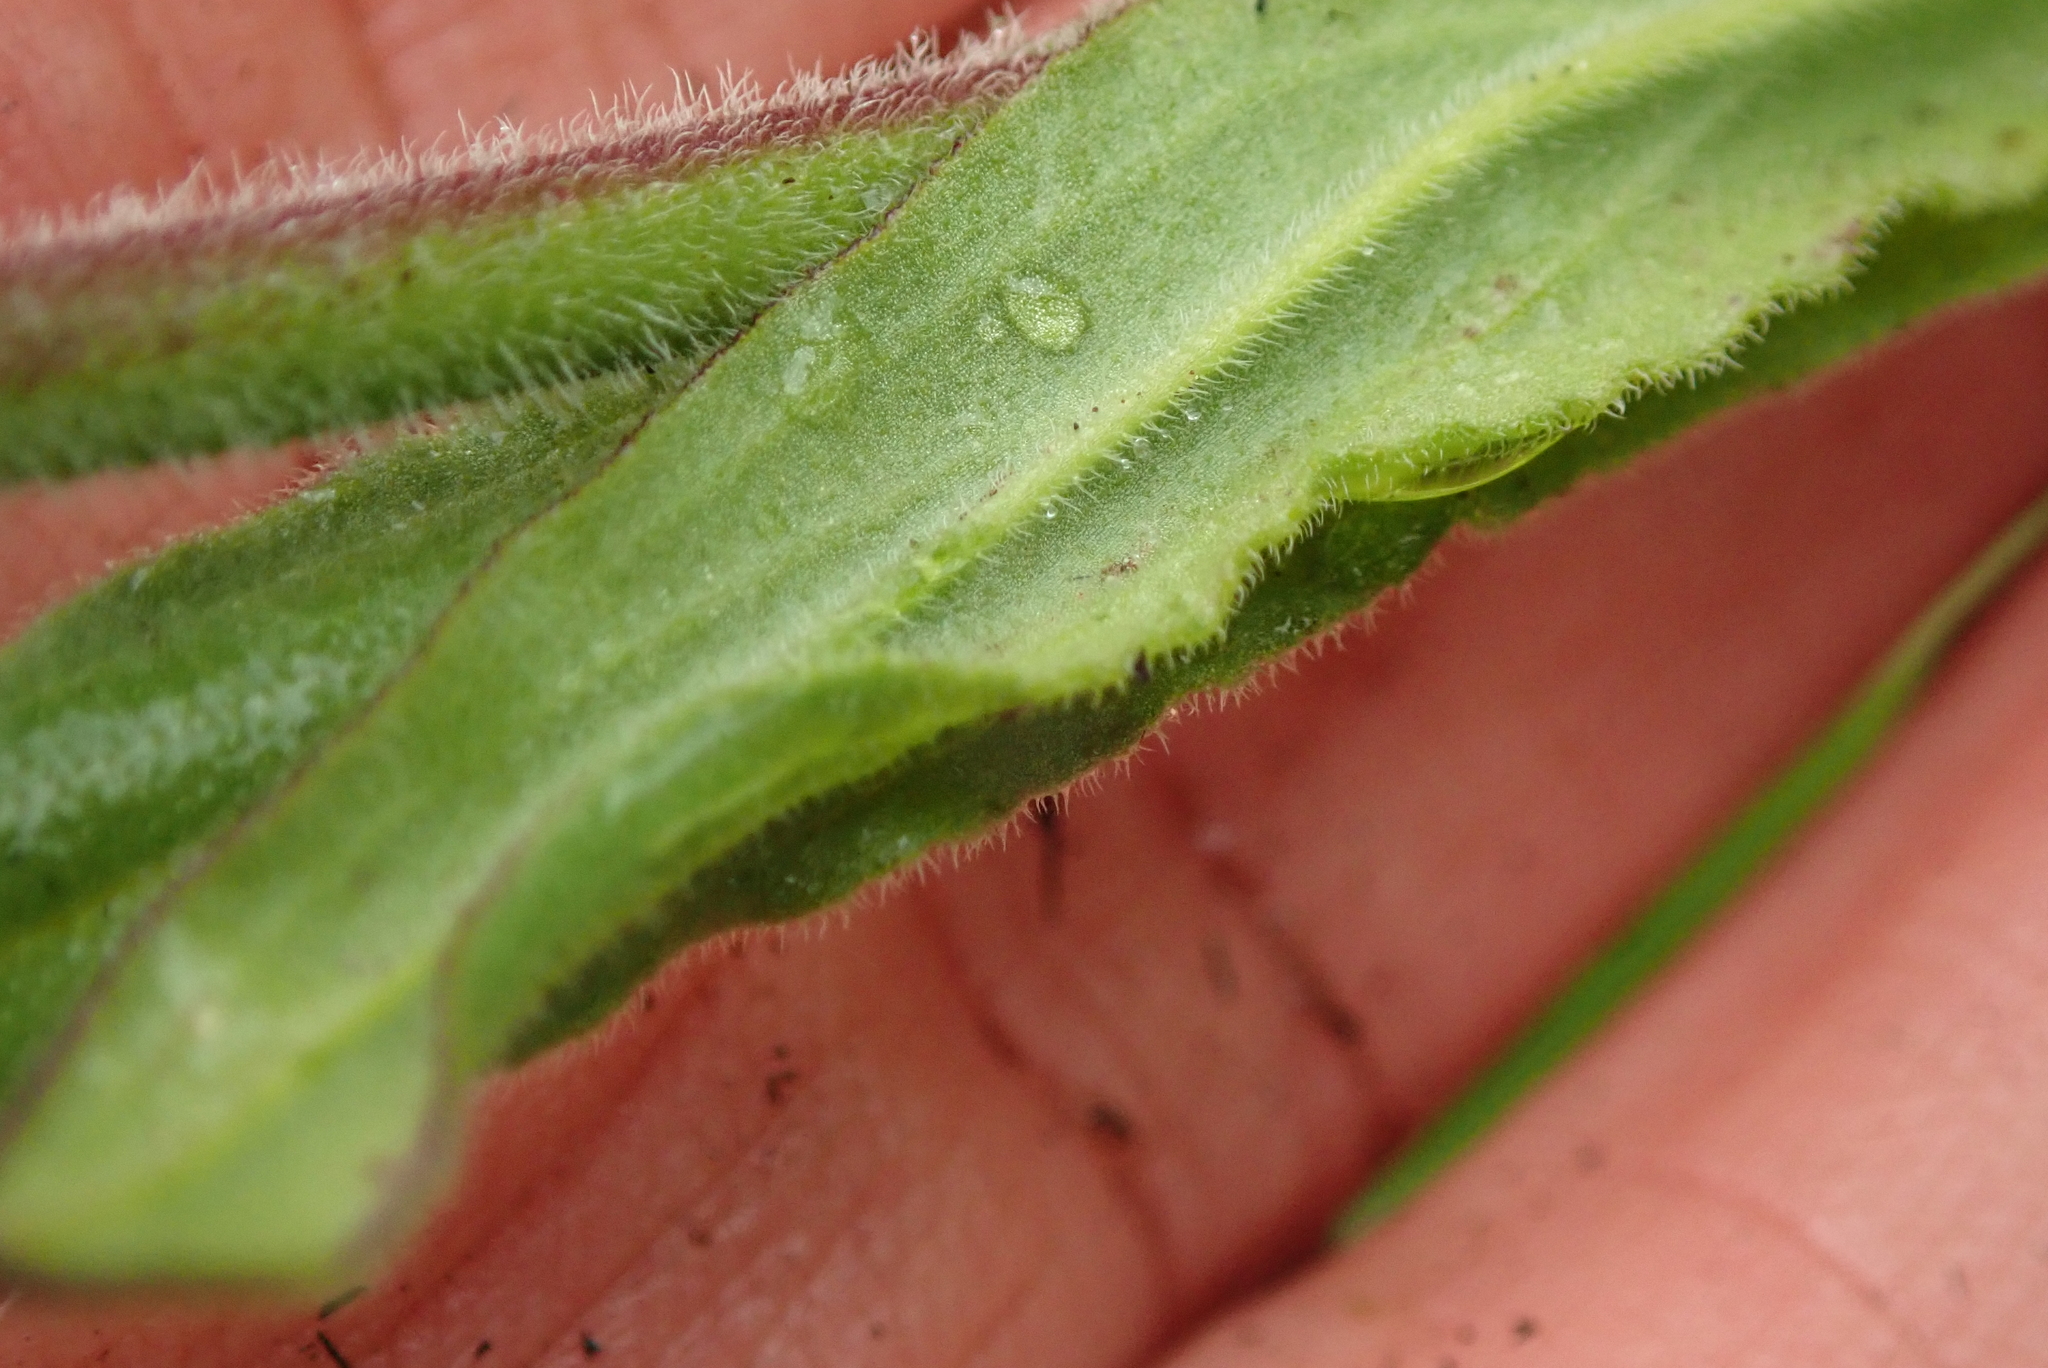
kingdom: Plantae
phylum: Tracheophyta
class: Magnoliopsida
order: Caryophyllales
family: Caryophyllaceae
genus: Silene
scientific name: Silene undulata
